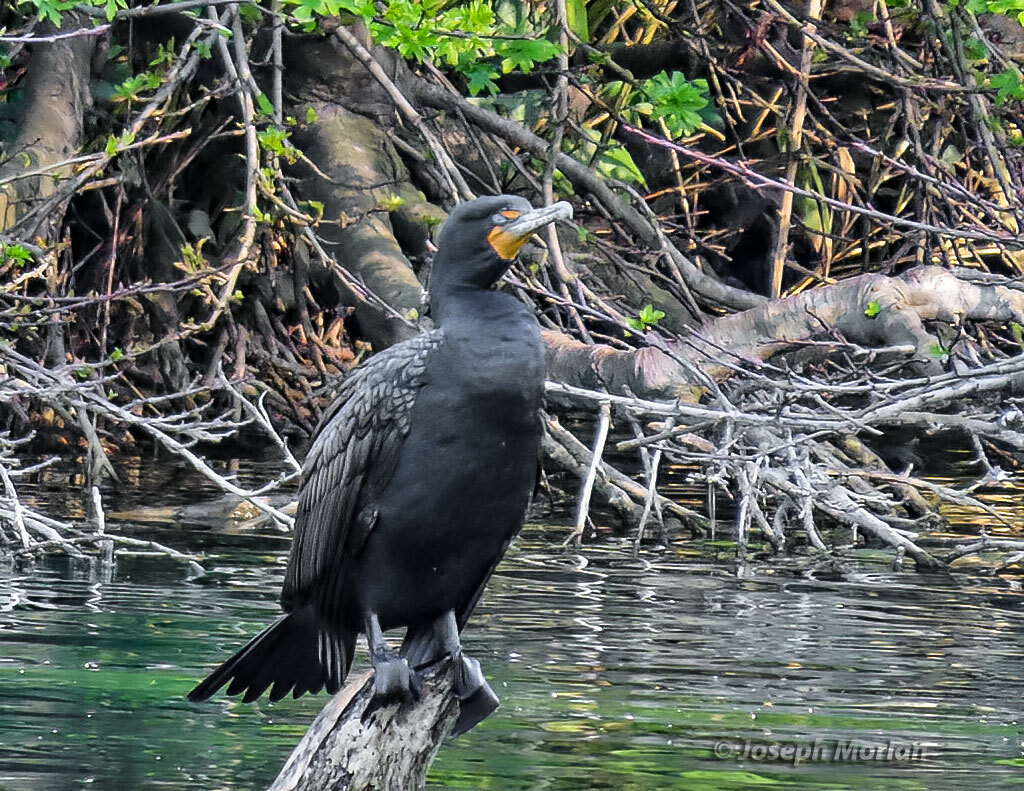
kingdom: Animalia
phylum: Chordata
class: Aves
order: Suliformes
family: Phalacrocoracidae
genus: Phalacrocorax
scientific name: Phalacrocorax auritus
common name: Double-crested cormorant
